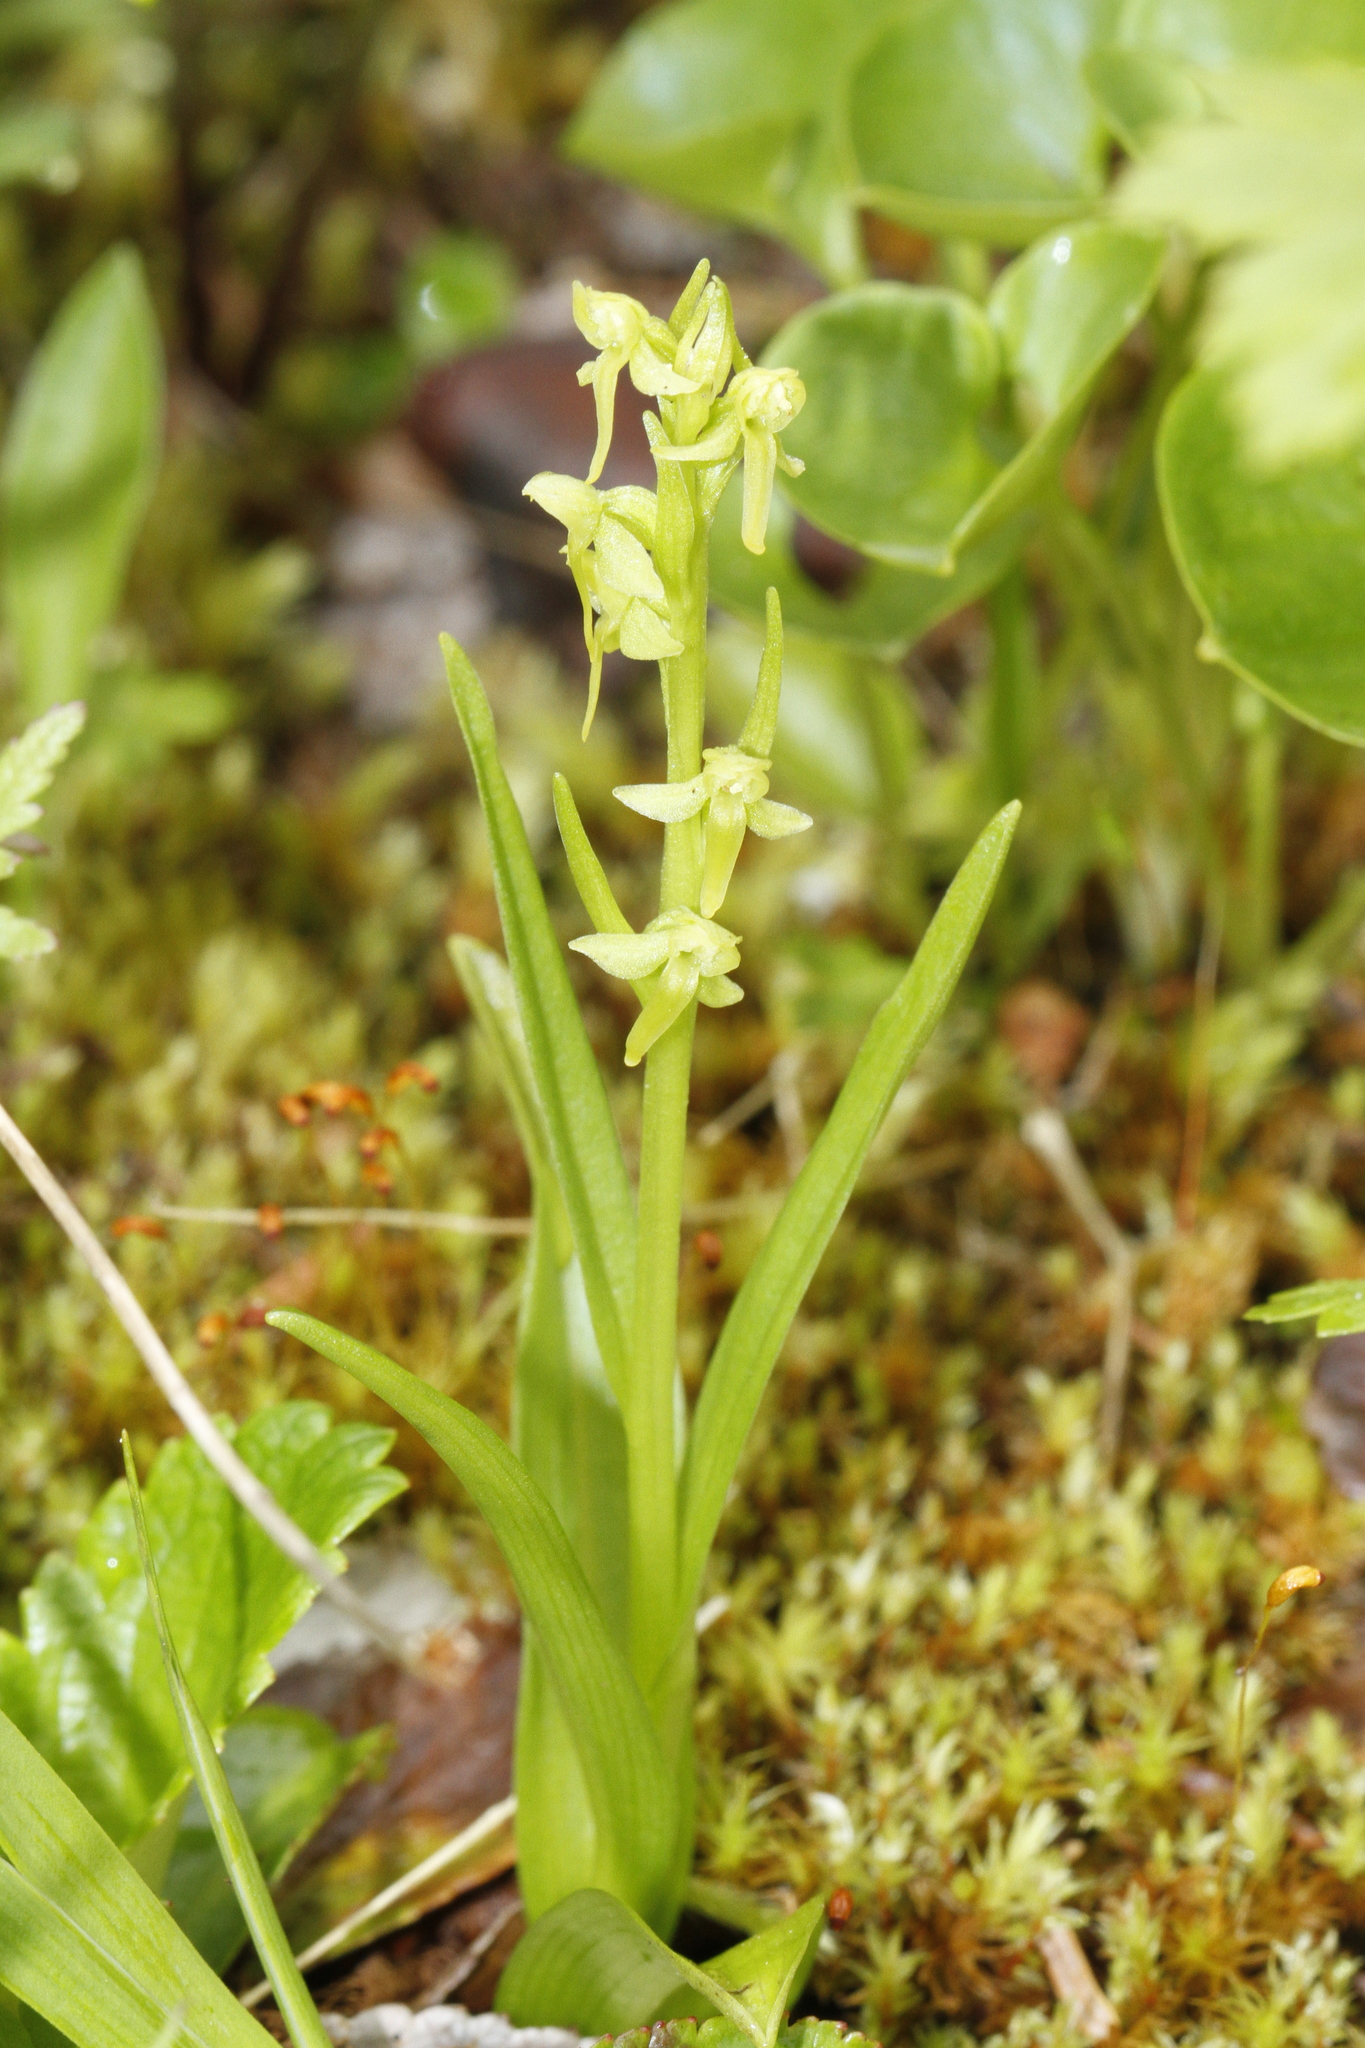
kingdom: Plantae
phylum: Tracheophyta
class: Liliopsida
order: Asparagales
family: Orchidaceae
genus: Platanthera
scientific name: Platanthera stricta
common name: Slender bog orchid
